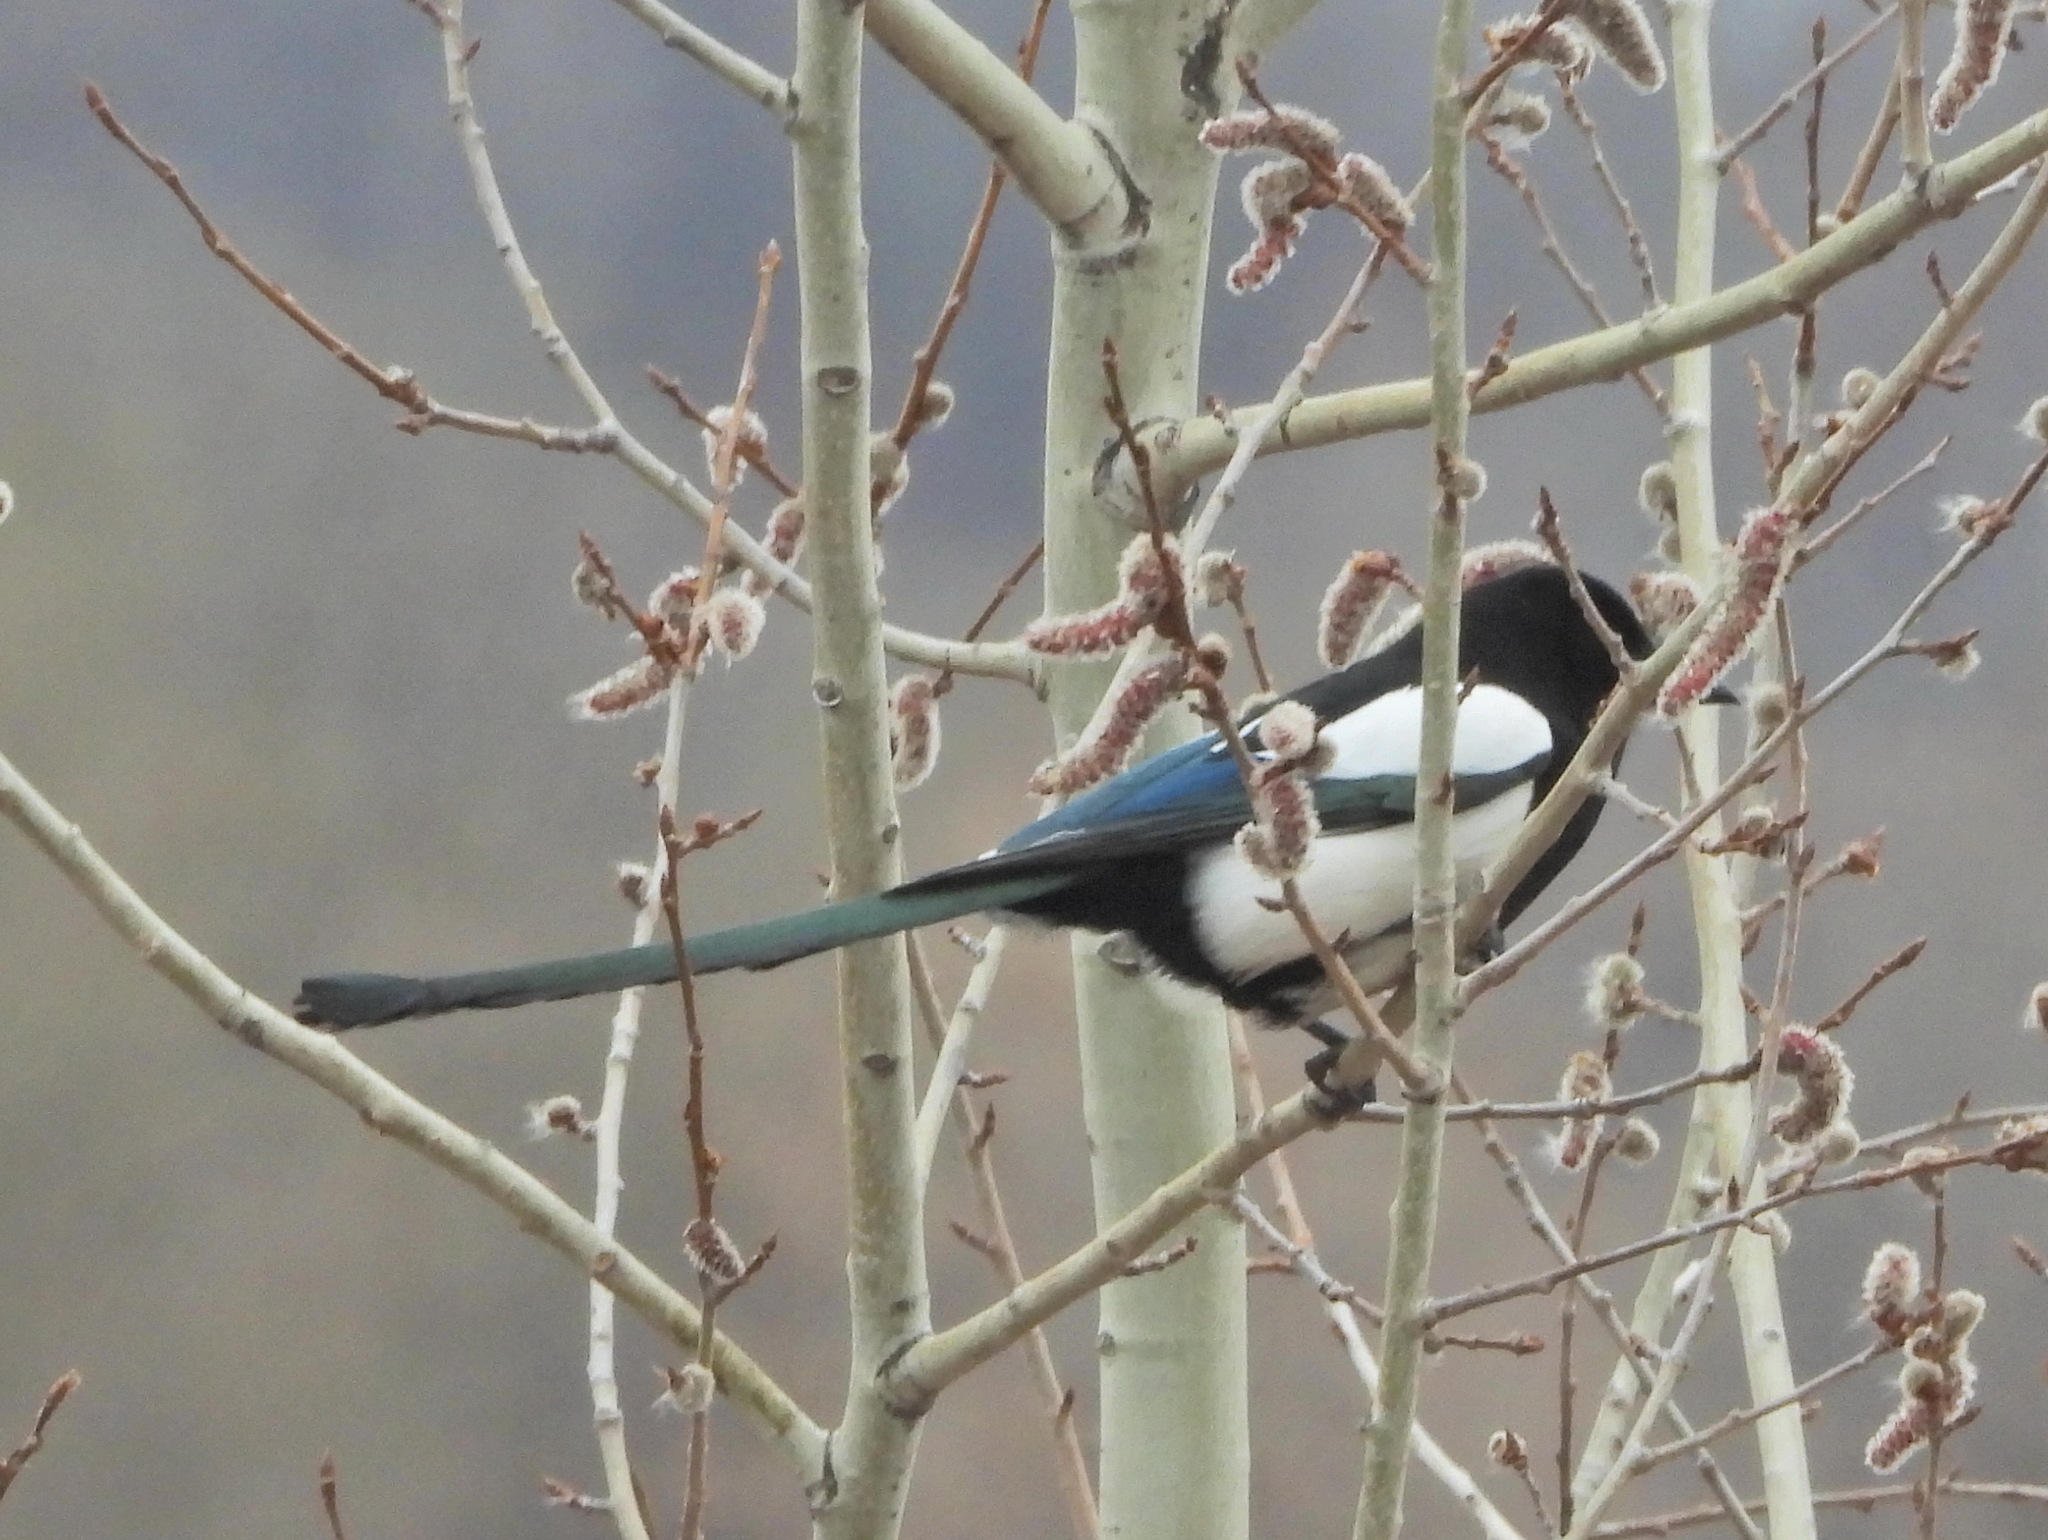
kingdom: Animalia
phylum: Chordata
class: Aves
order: Passeriformes
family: Corvidae
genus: Pica
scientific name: Pica pica
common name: Eurasian magpie
